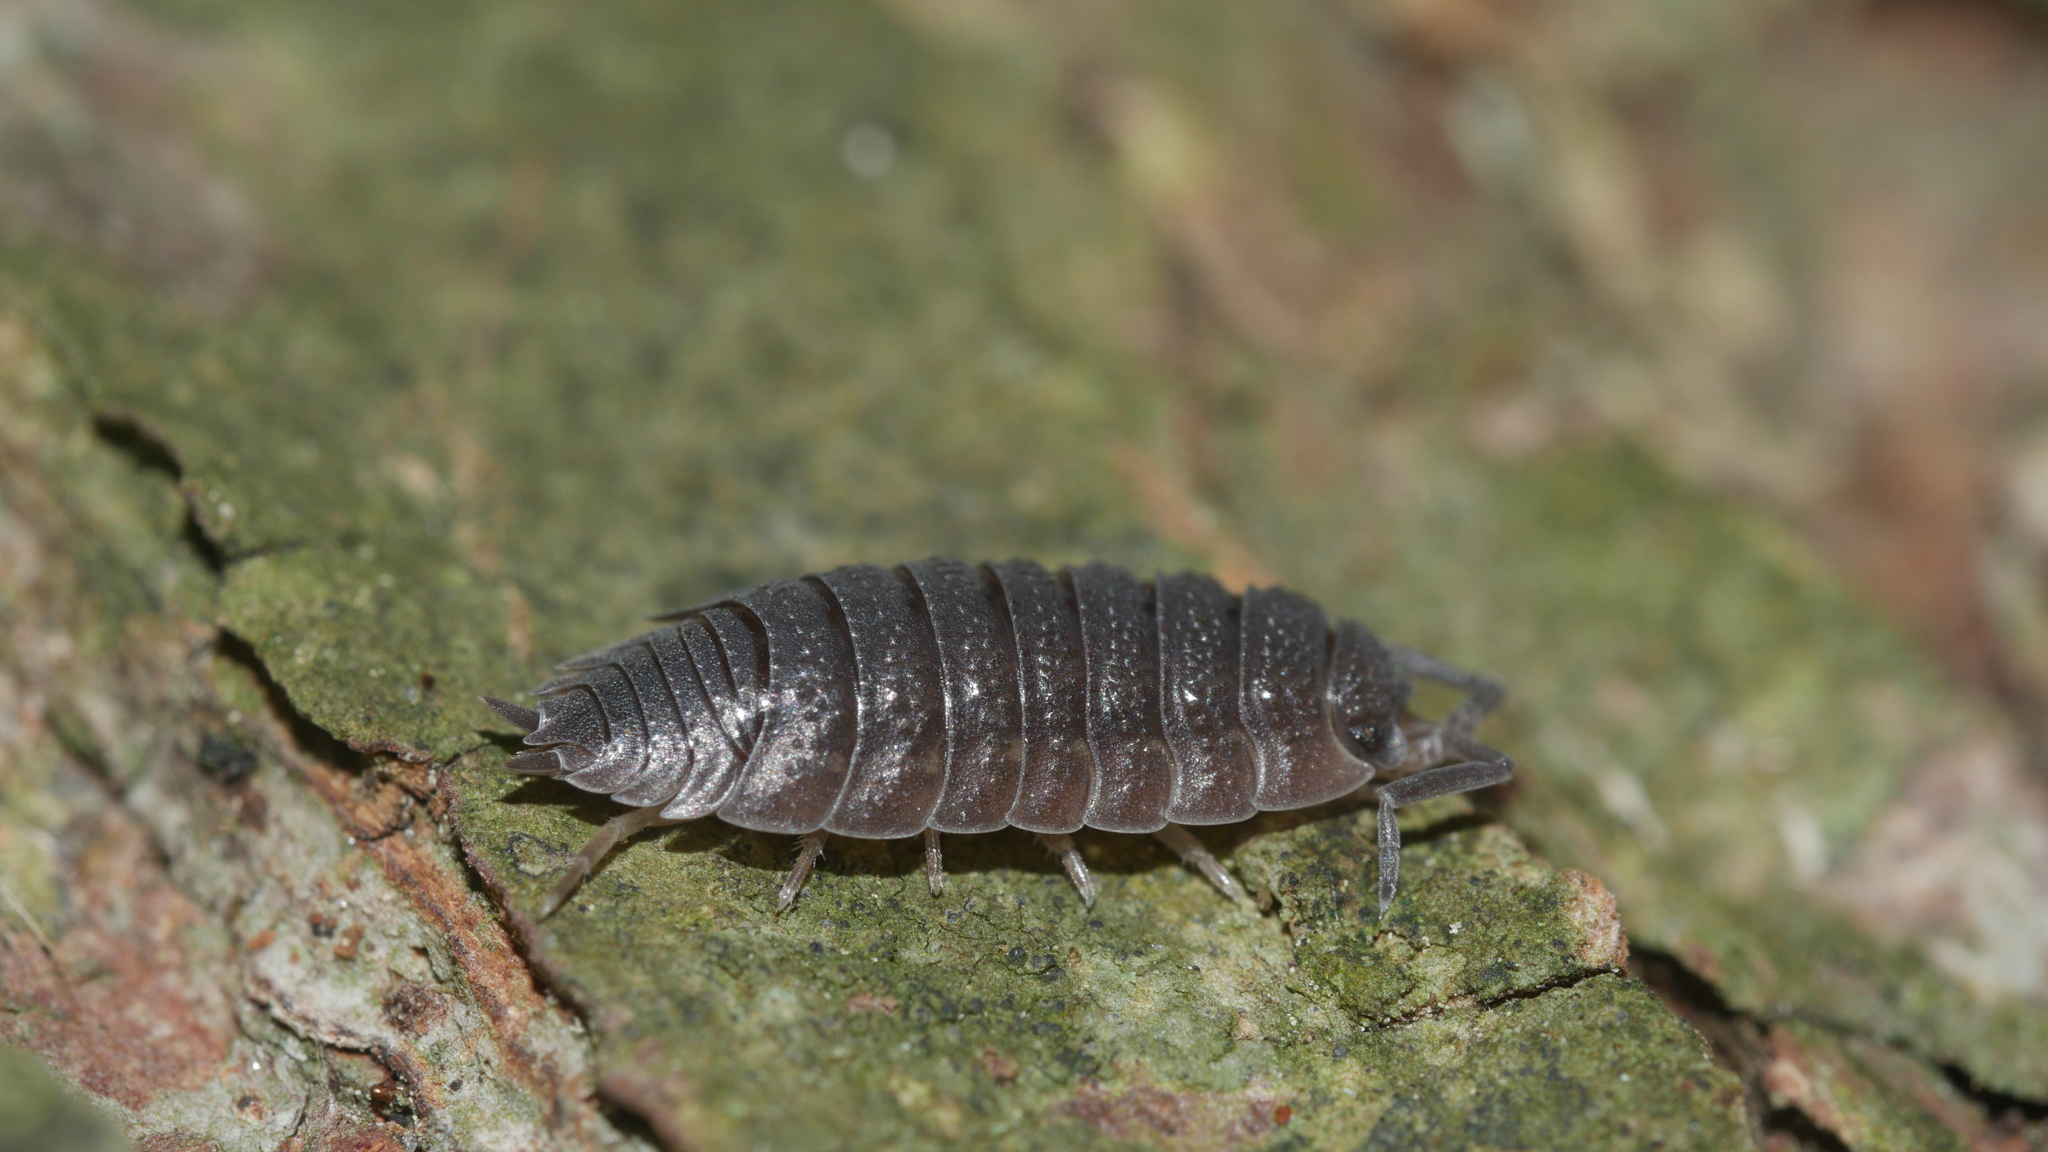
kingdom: Animalia
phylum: Arthropoda
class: Malacostraca
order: Isopoda
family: Porcellionidae
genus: Porcellio
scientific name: Porcellio scaber
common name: Common rough woodlouse
